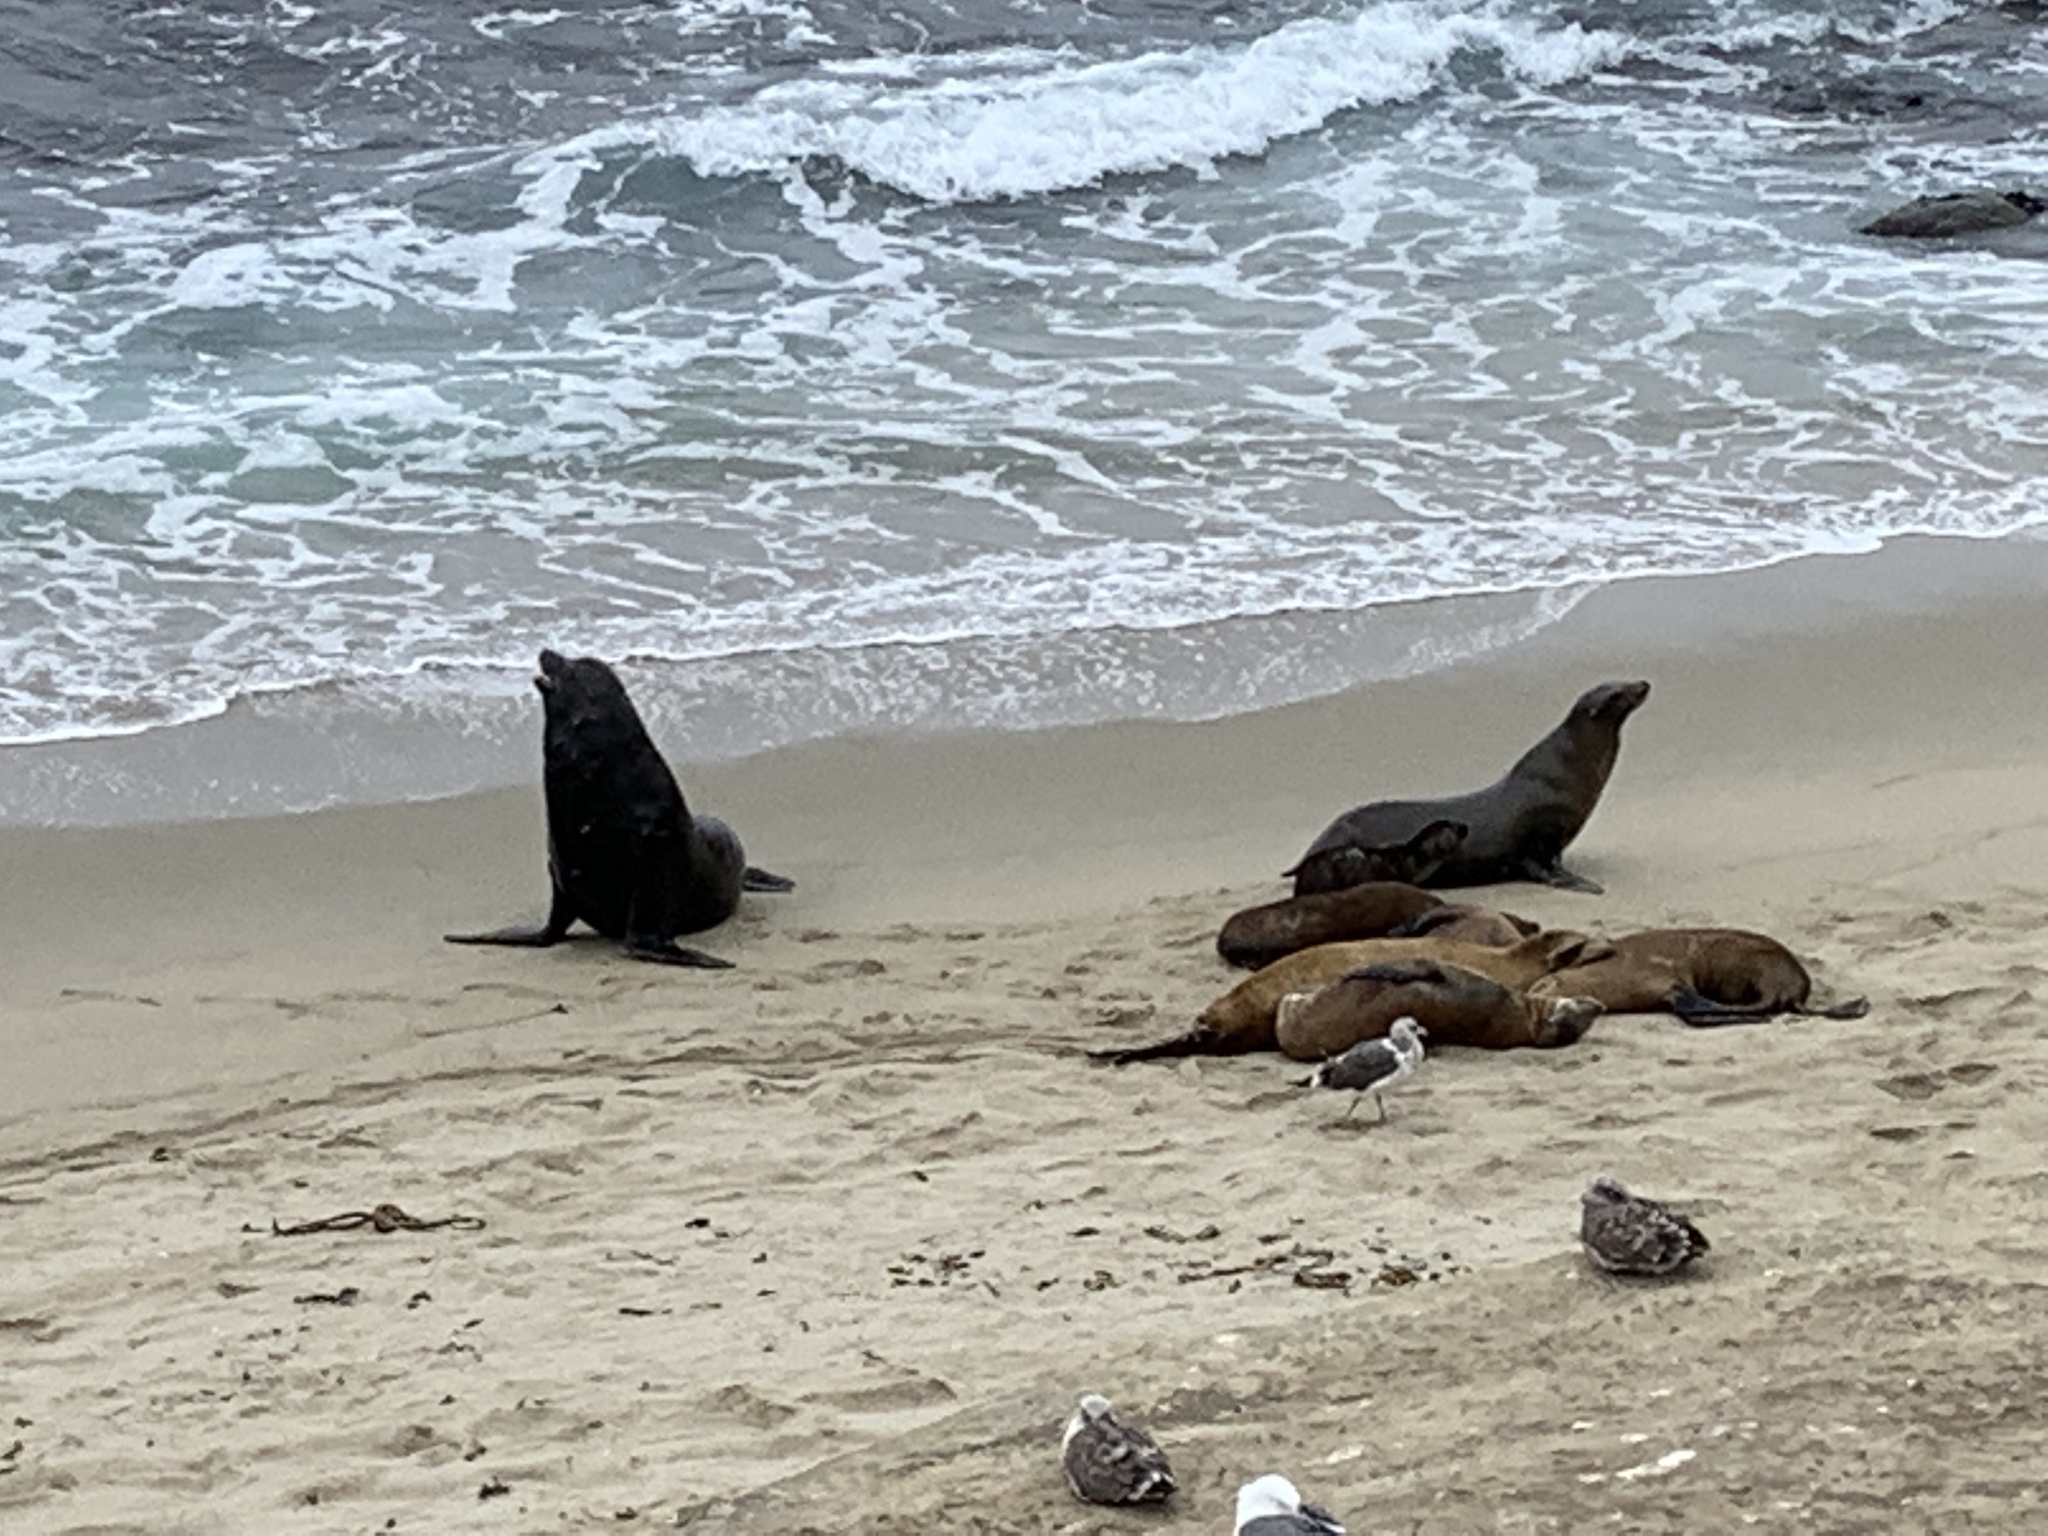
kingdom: Animalia
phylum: Chordata
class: Mammalia
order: Carnivora
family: Otariidae
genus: Zalophus
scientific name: Zalophus californianus
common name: California sea lion
